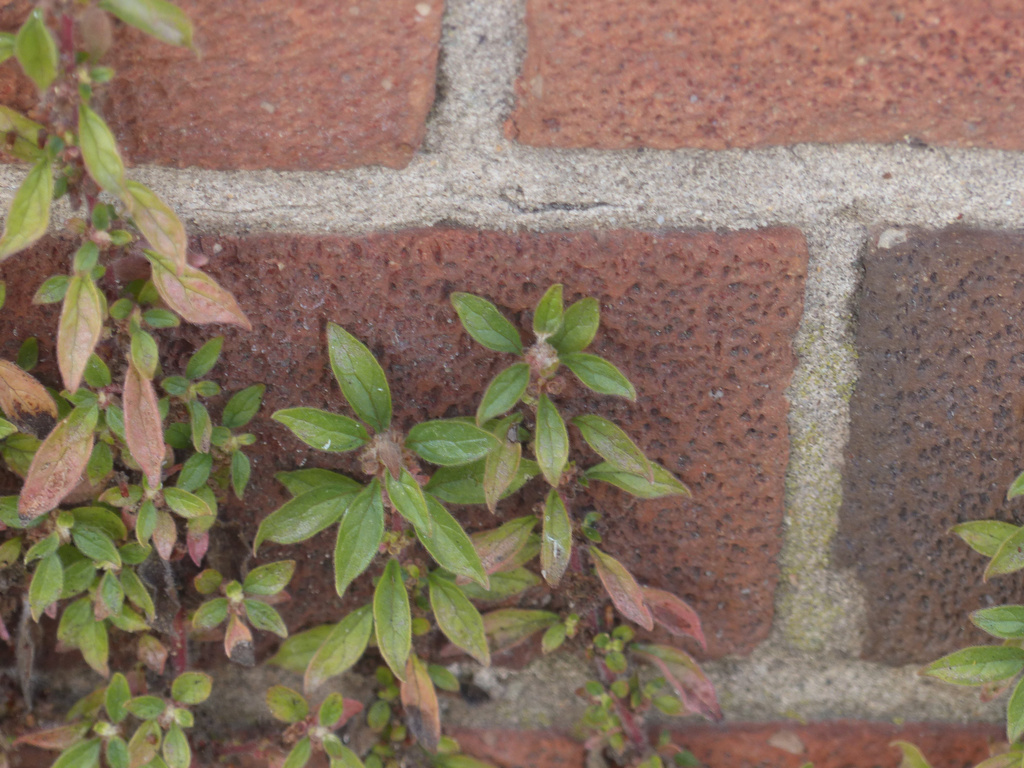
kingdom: Plantae
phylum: Tracheophyta
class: Magnoliopsida
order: Rosales
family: Urticaceae
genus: Parietaria
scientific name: Parietaria judaica
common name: Pellitory-of-the-wall
